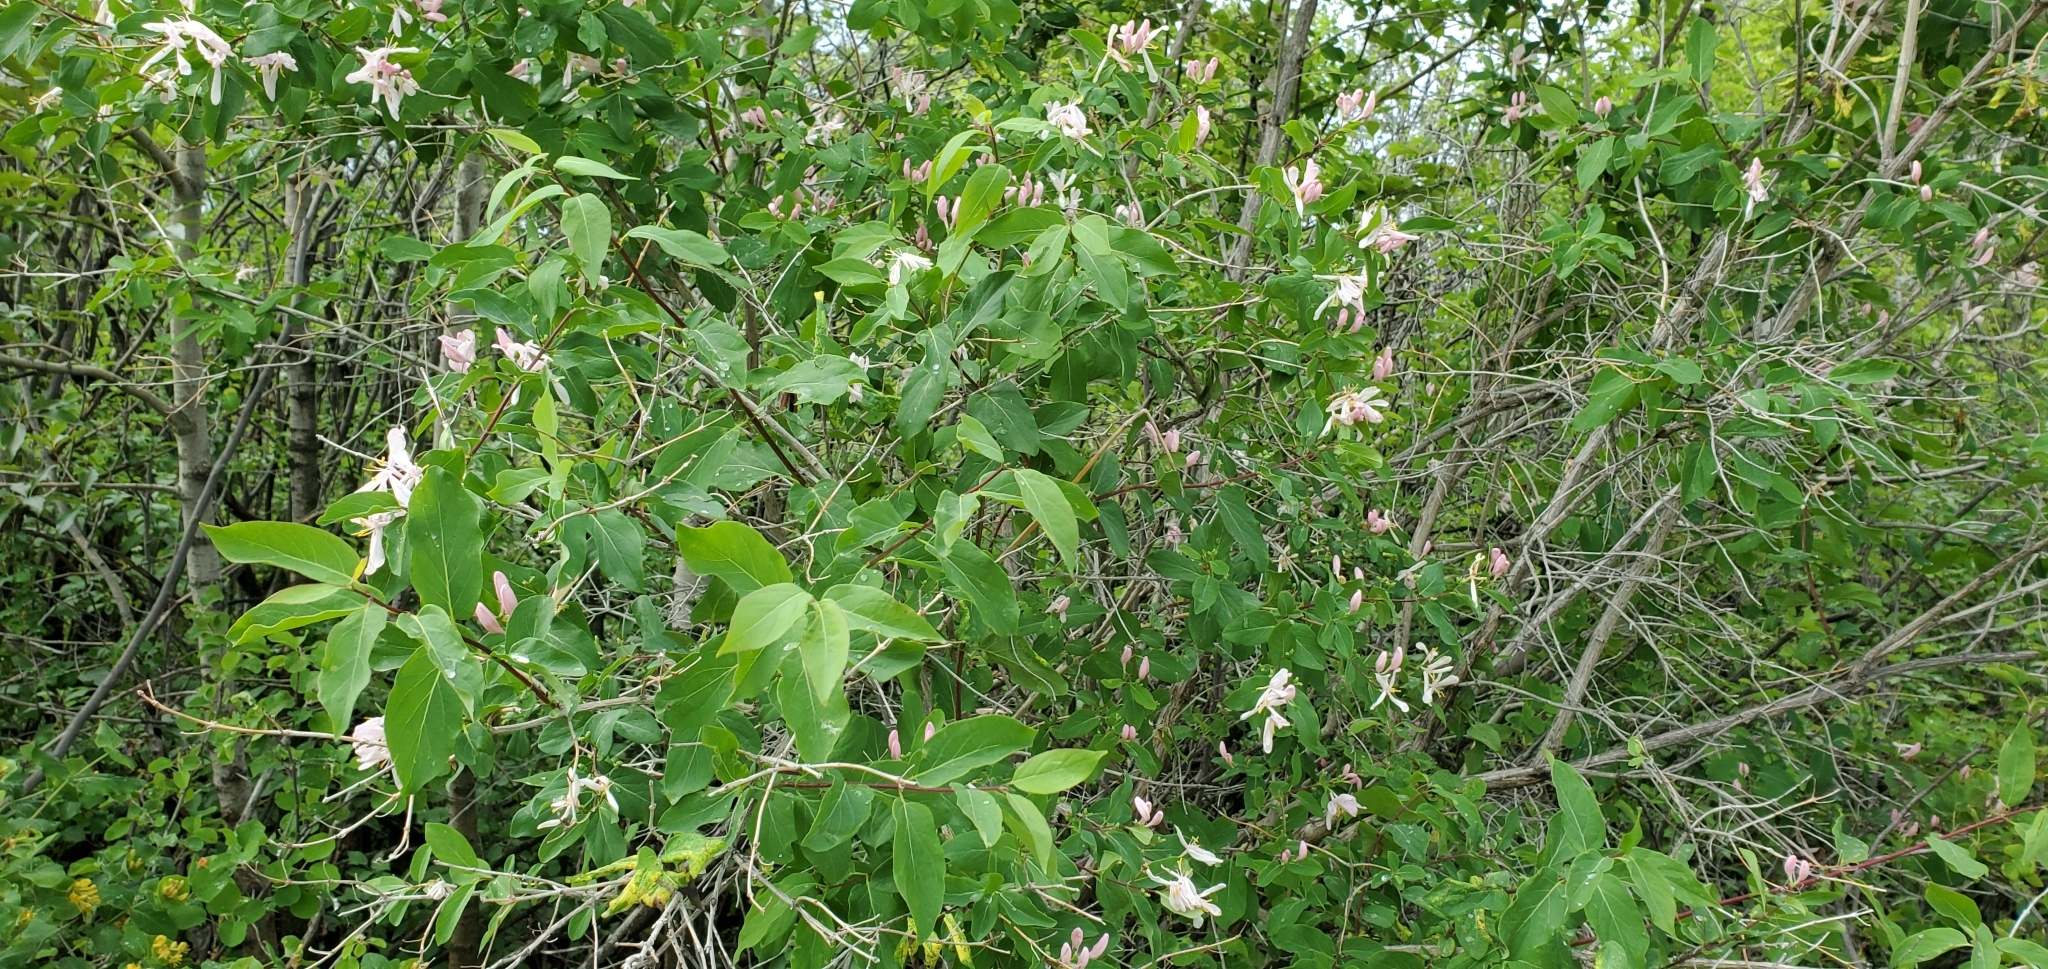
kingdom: Plantae
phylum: Tracheophyta
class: Magnoliopsida
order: Dipsacales
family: Caprifoliaceae
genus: Lonicera
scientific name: Lonicera tatarica
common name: Tatarian honeysuckle
